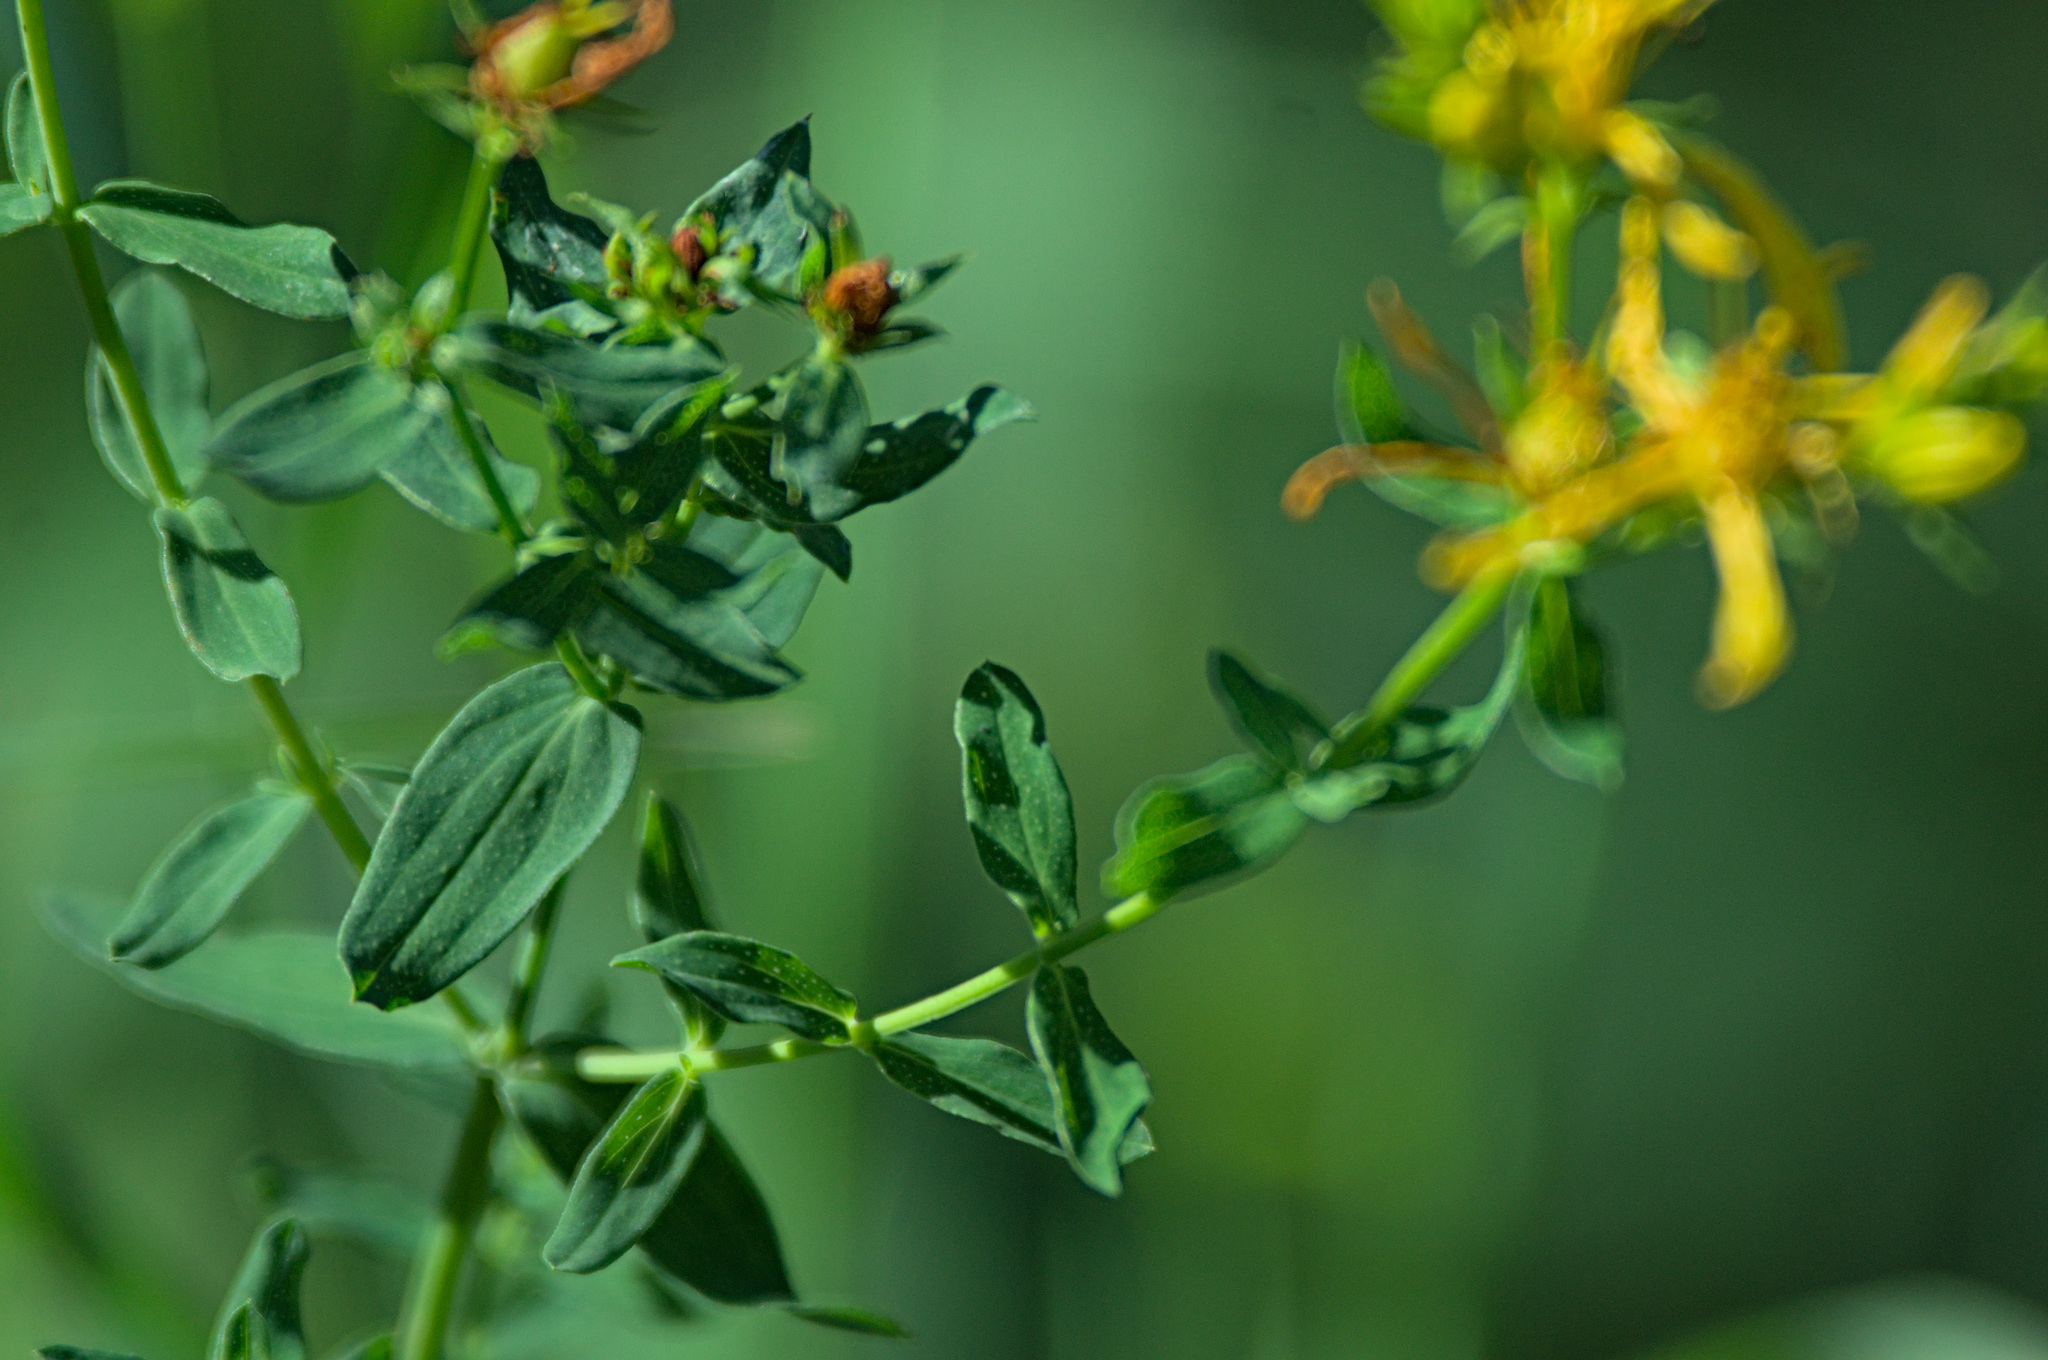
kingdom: Plantae
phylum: Tracheophyta
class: Magnoliopsida
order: Malpighiales
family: Hypericaceae
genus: Hypericum
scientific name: Hypericum perforatum
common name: Common st. johnswort
